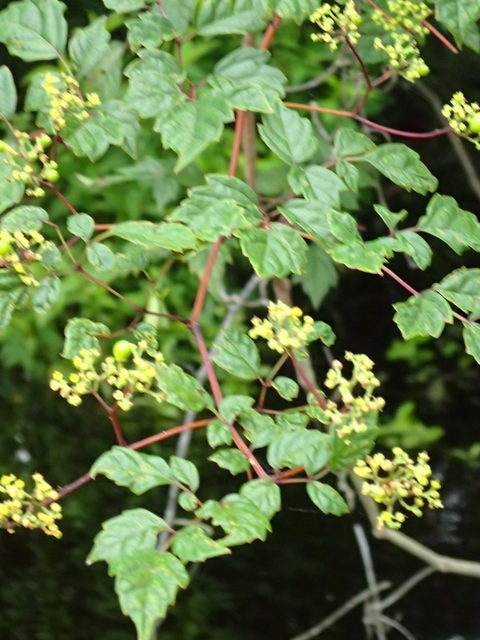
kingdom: Plantae
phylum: Tracheophyta
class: Magnoliopsida
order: Vitales
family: Vitaceae
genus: Nekemias
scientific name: Nekemias arborea
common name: Peppervine
